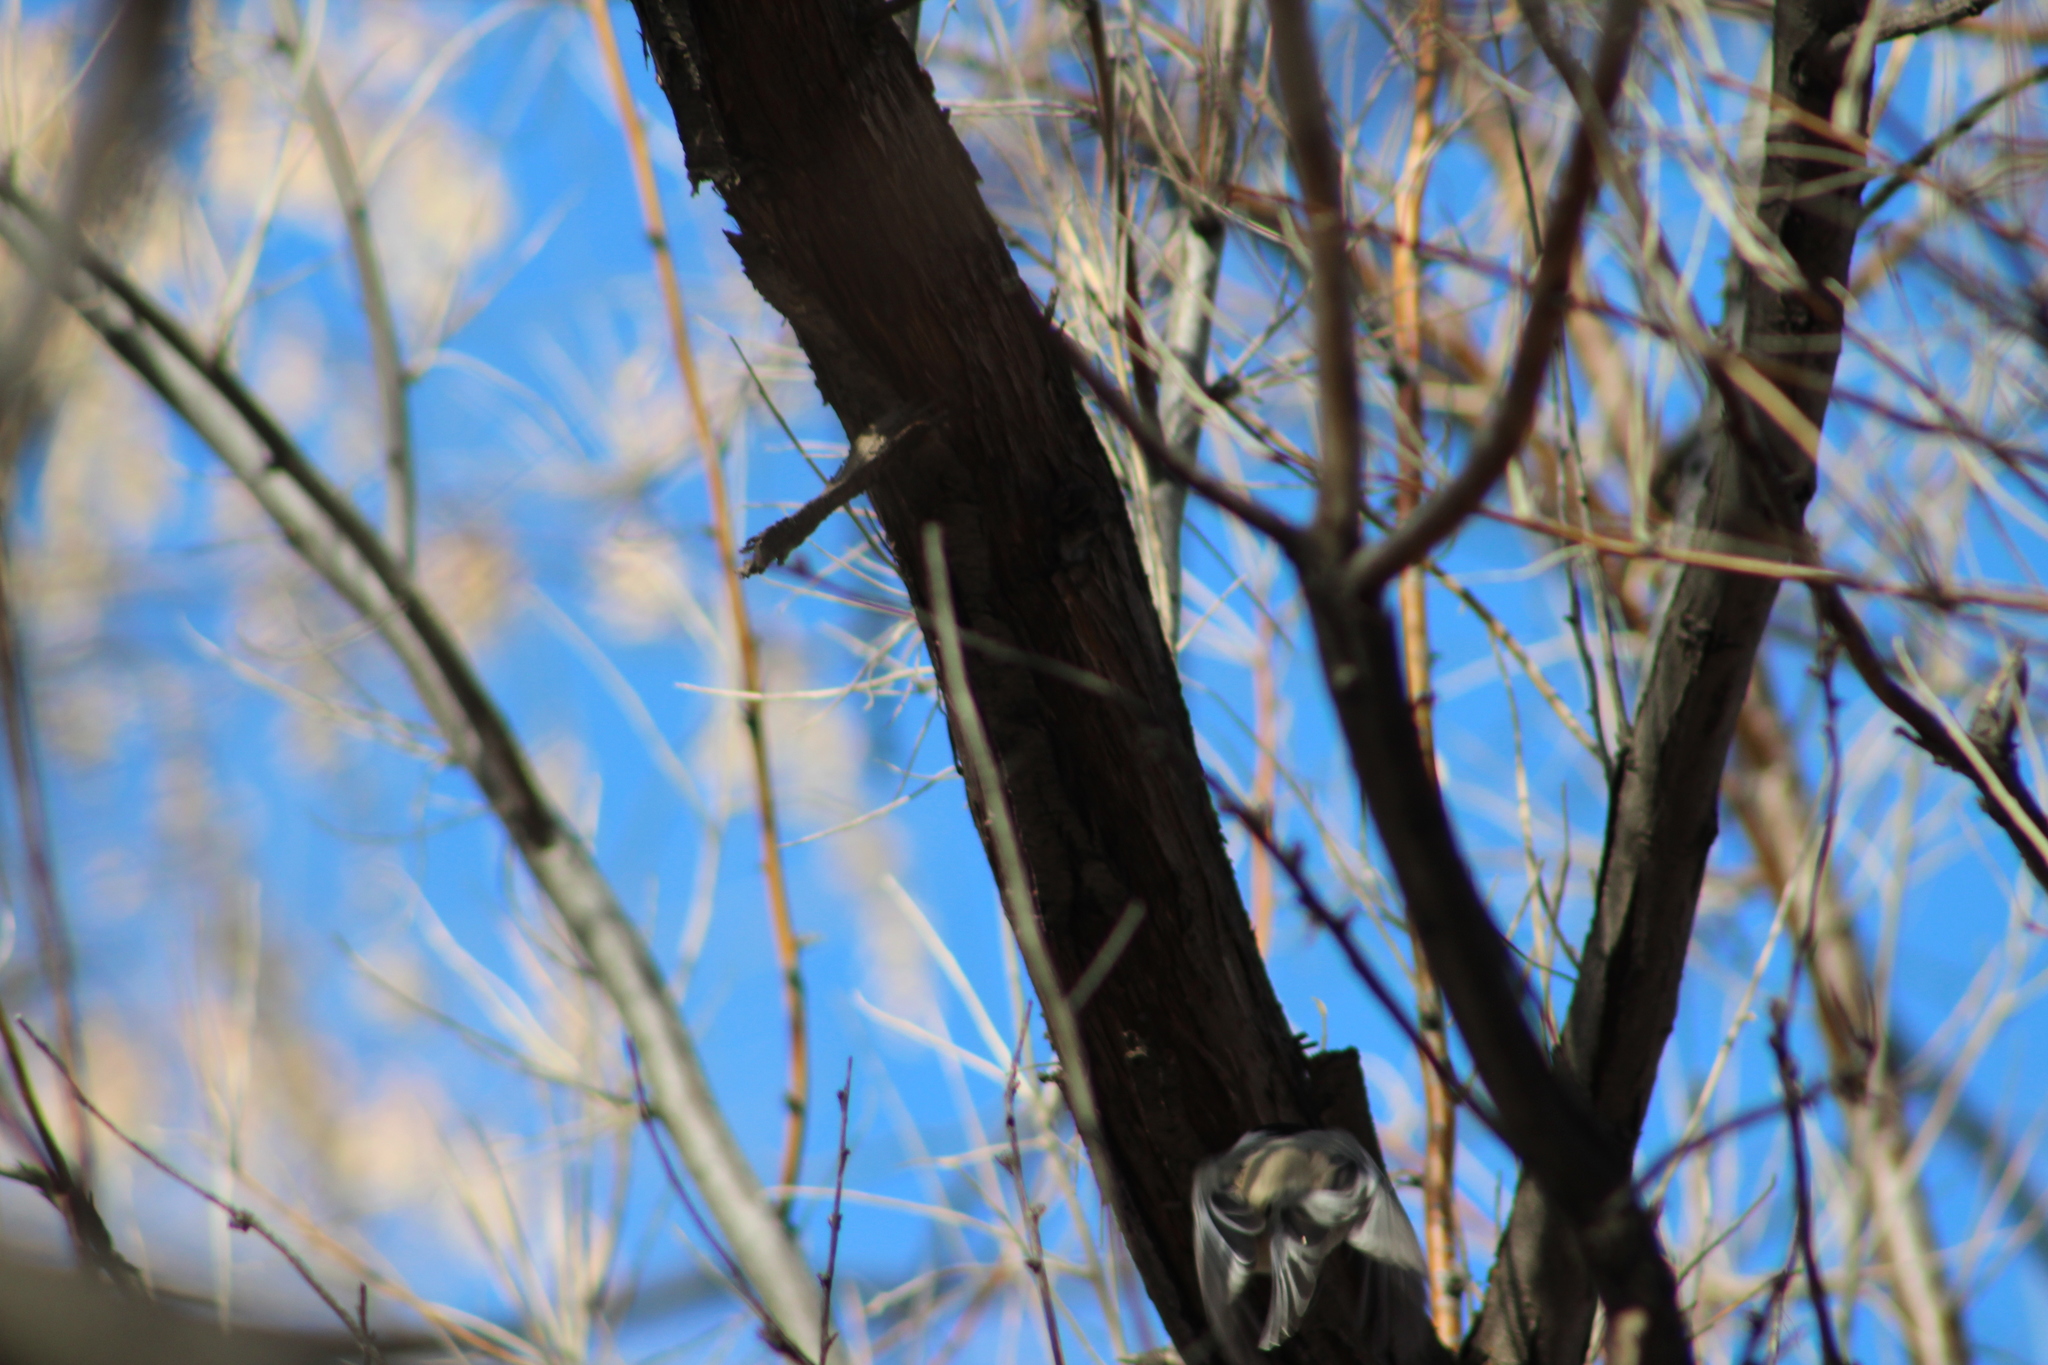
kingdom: Animalia
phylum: Chordata
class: Aves
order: Passeriformes
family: Paridae
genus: Poecile
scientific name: Poecile atricapillus
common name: Black-capped chickadee
